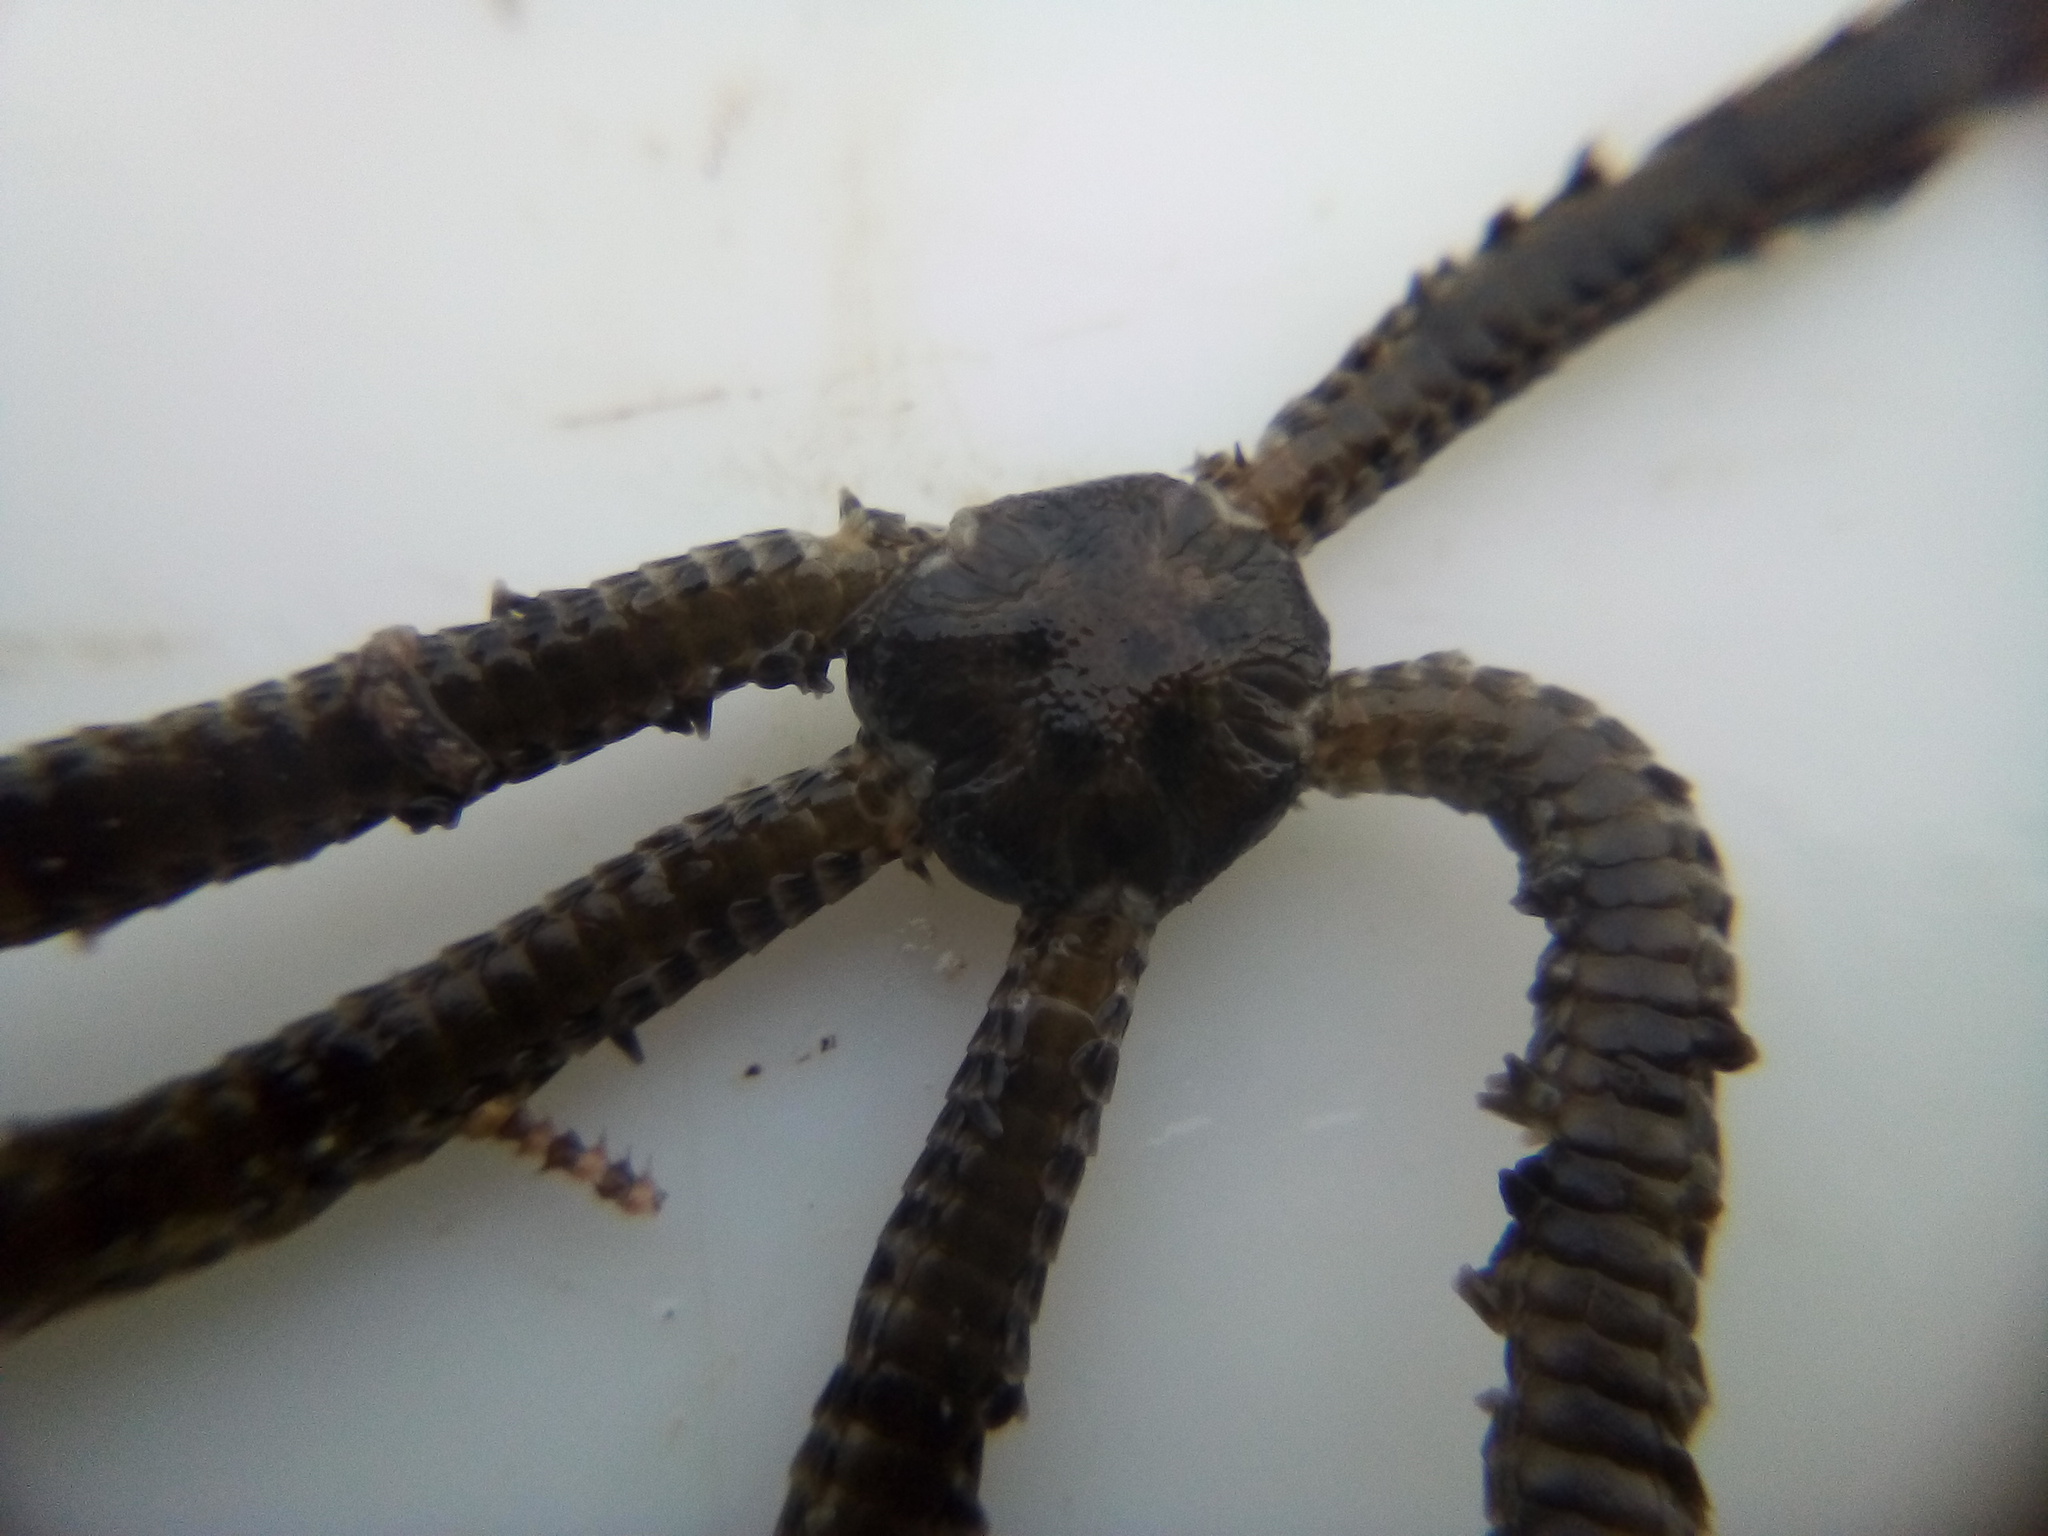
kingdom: Animalia
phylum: Echinodermata
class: Ophiuroidea
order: Amphilepidida
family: Ophiactidae
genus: Ophiactis
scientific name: Ophiactis resiliens
